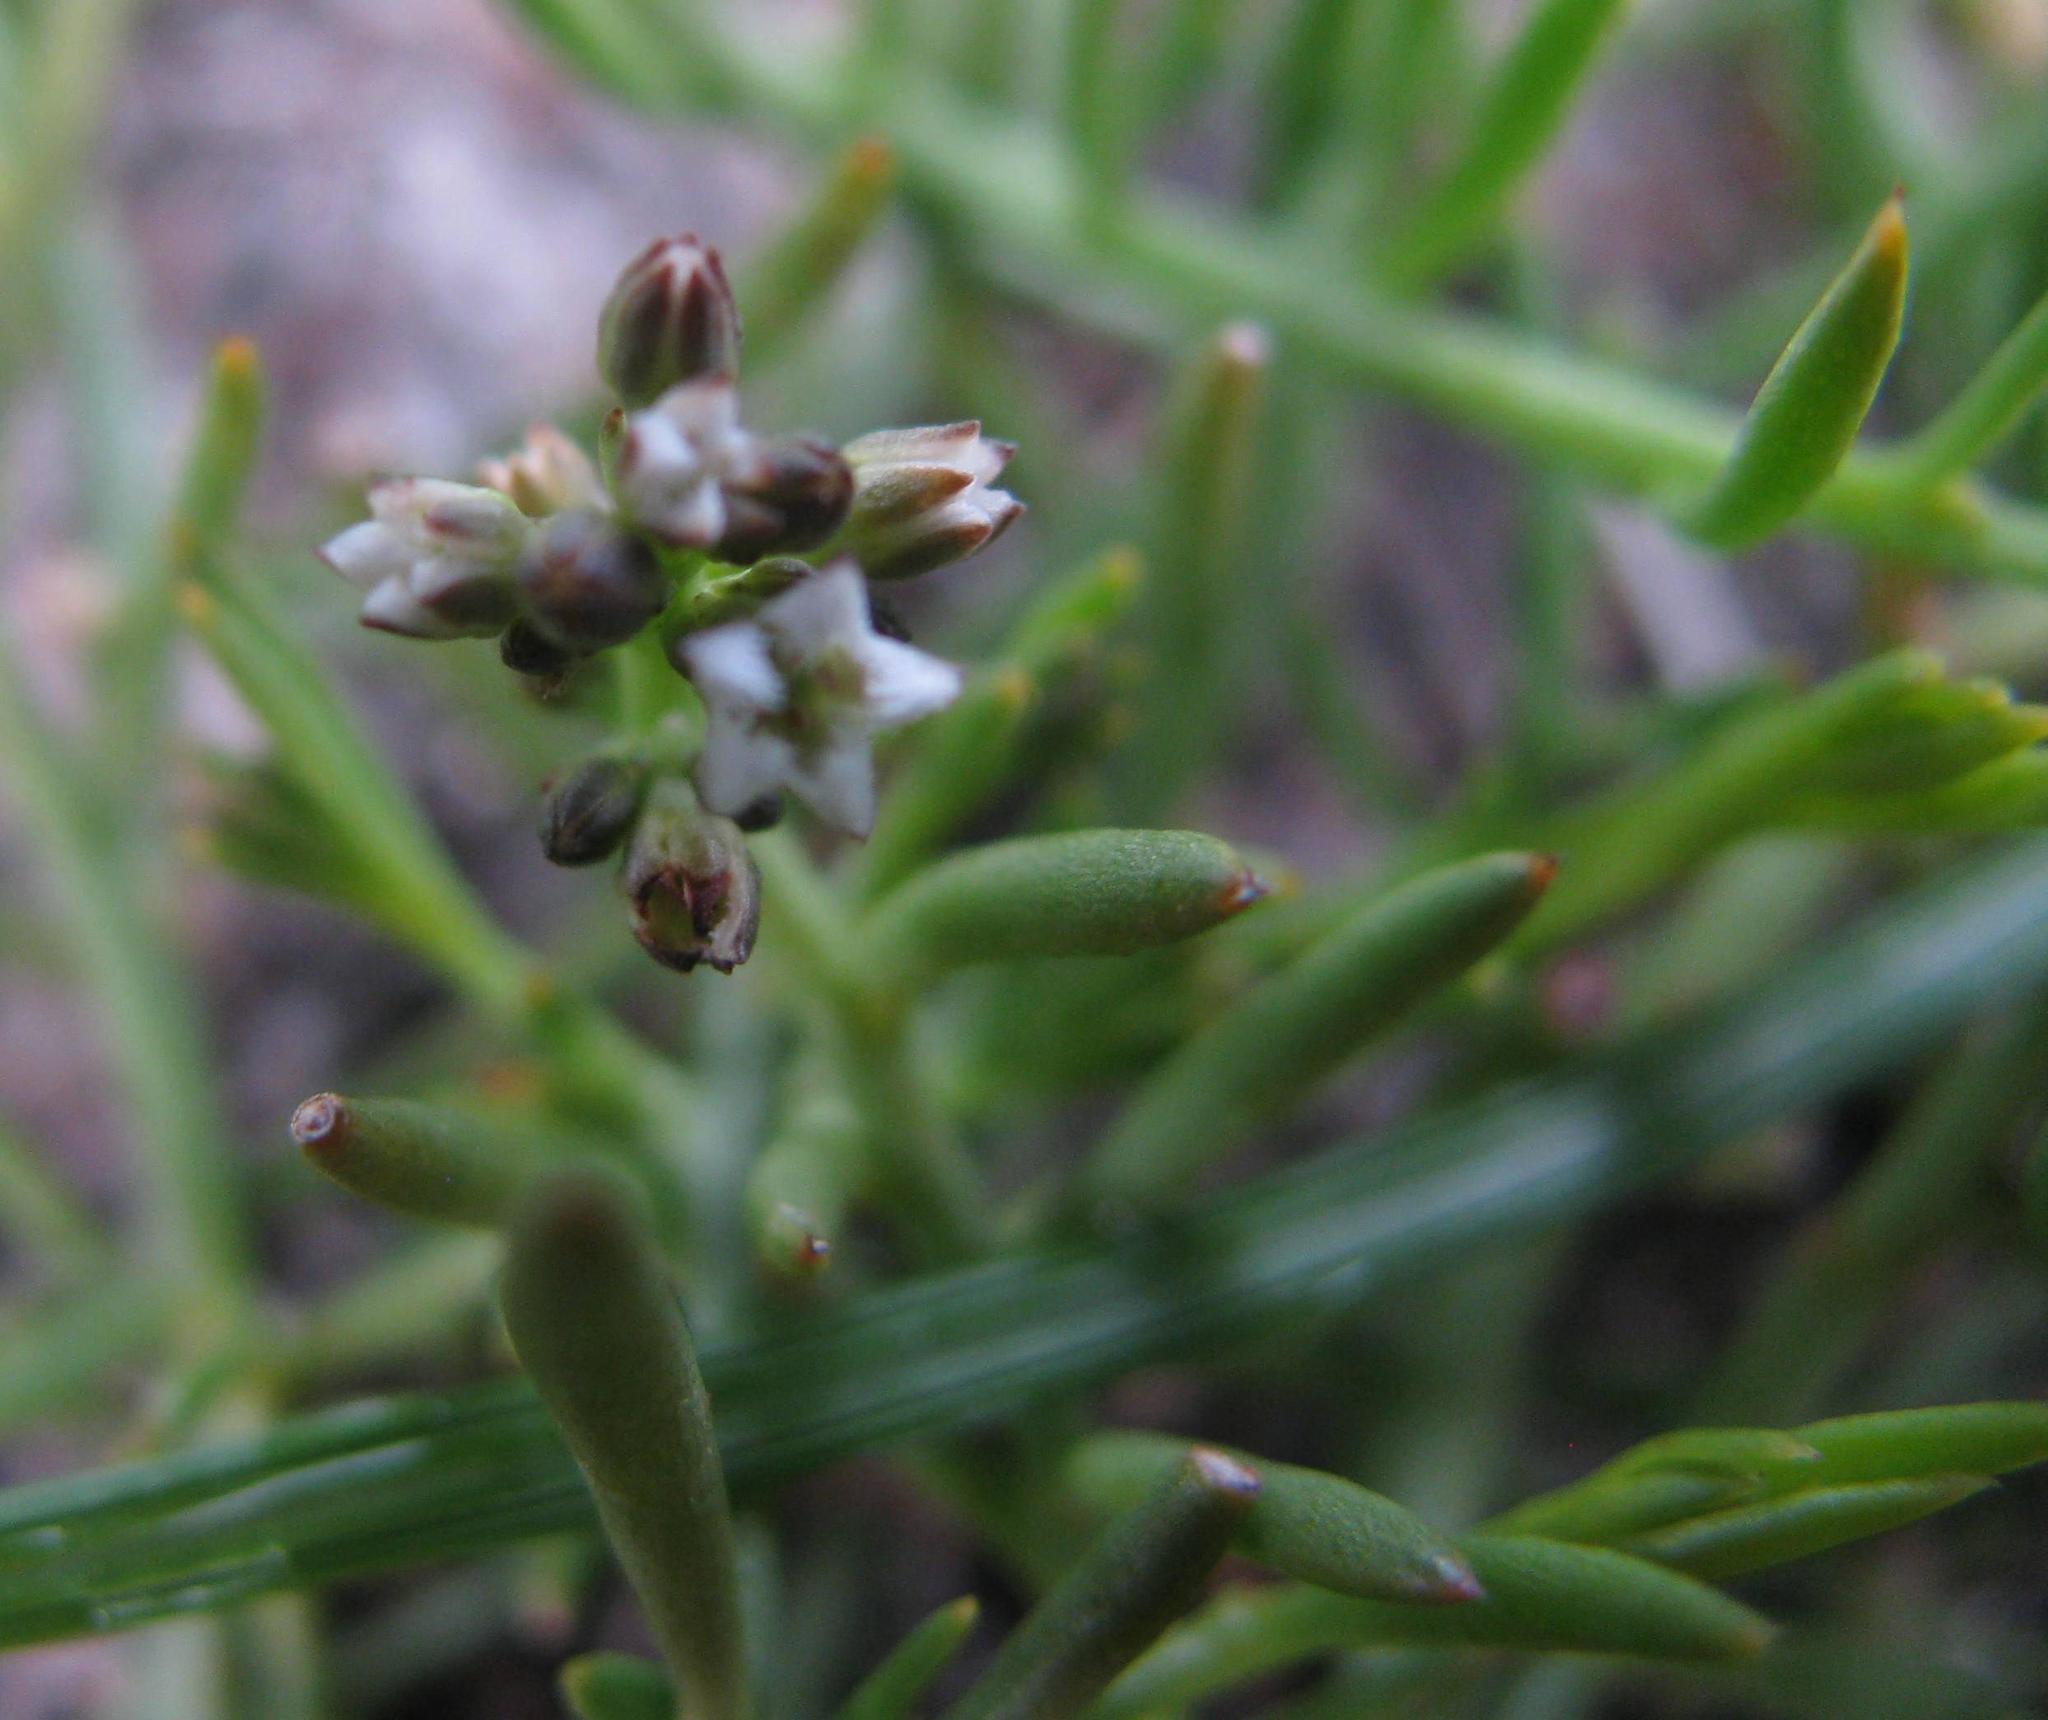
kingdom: Plantae
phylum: Tracheophyta
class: Magnoliopsida
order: Santalales
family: Thesiaceae
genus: Thesium
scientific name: Thesium frisea
